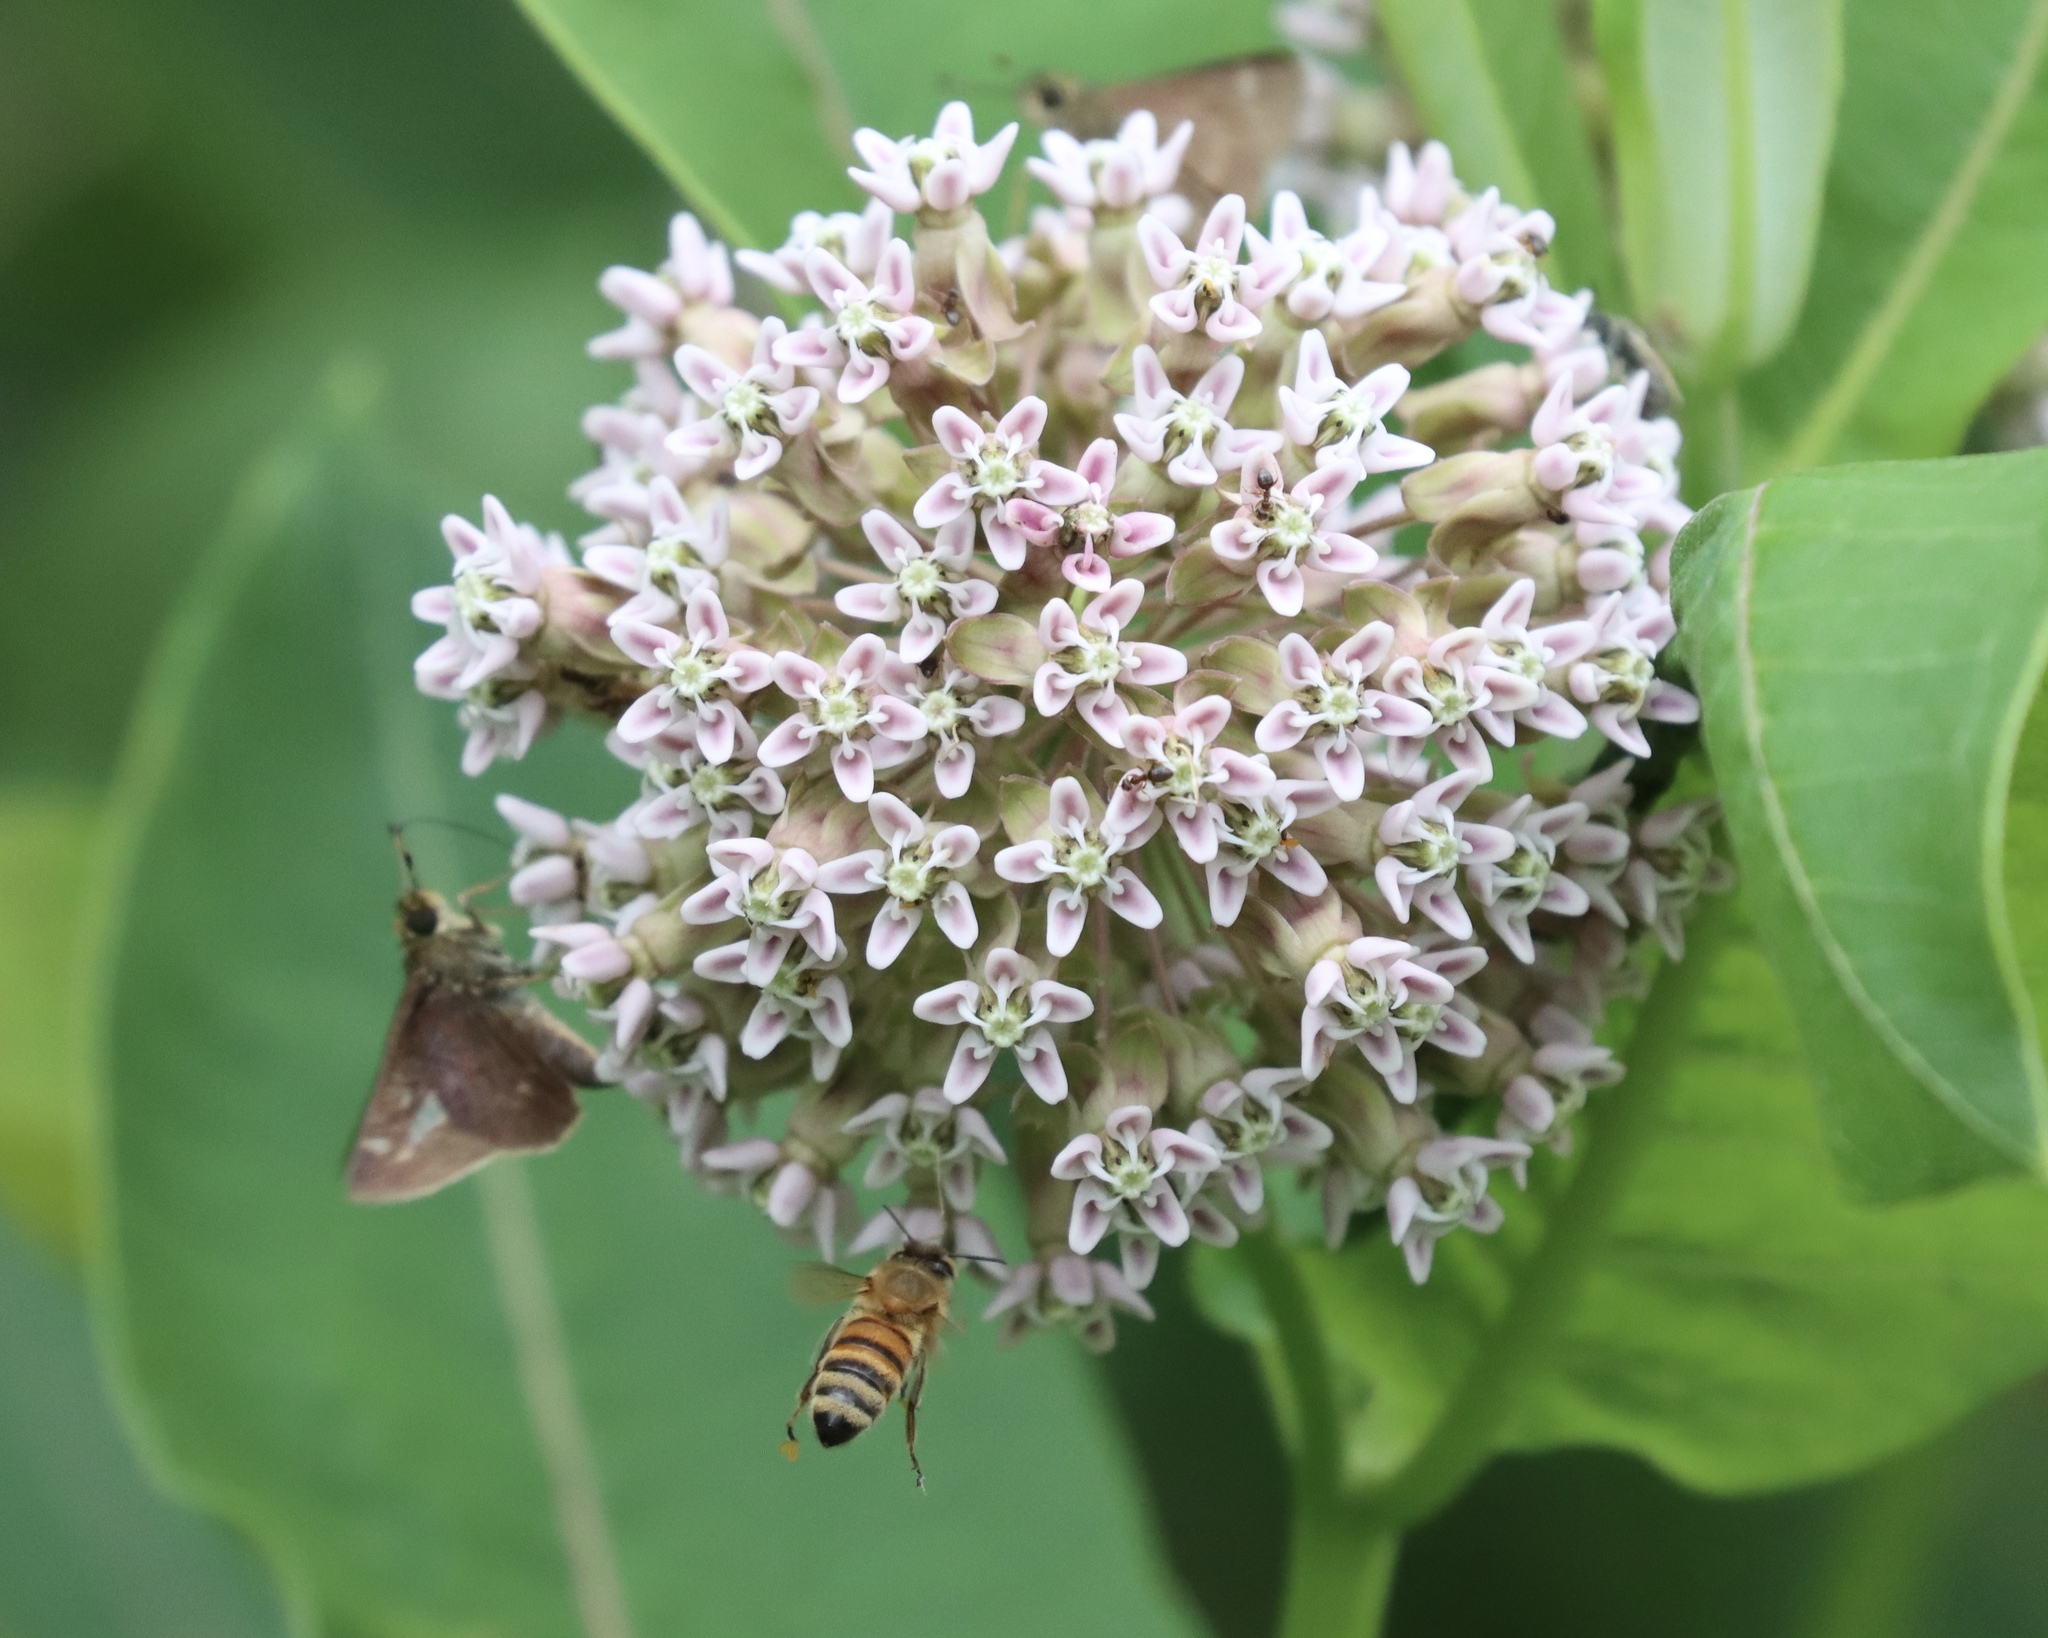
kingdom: Plantae
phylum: Tracheophyta
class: Magnoliopsida
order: Gentianales
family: Apocynaceae
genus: Asclepias
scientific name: Asclepias syriaca
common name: Common milkweed
